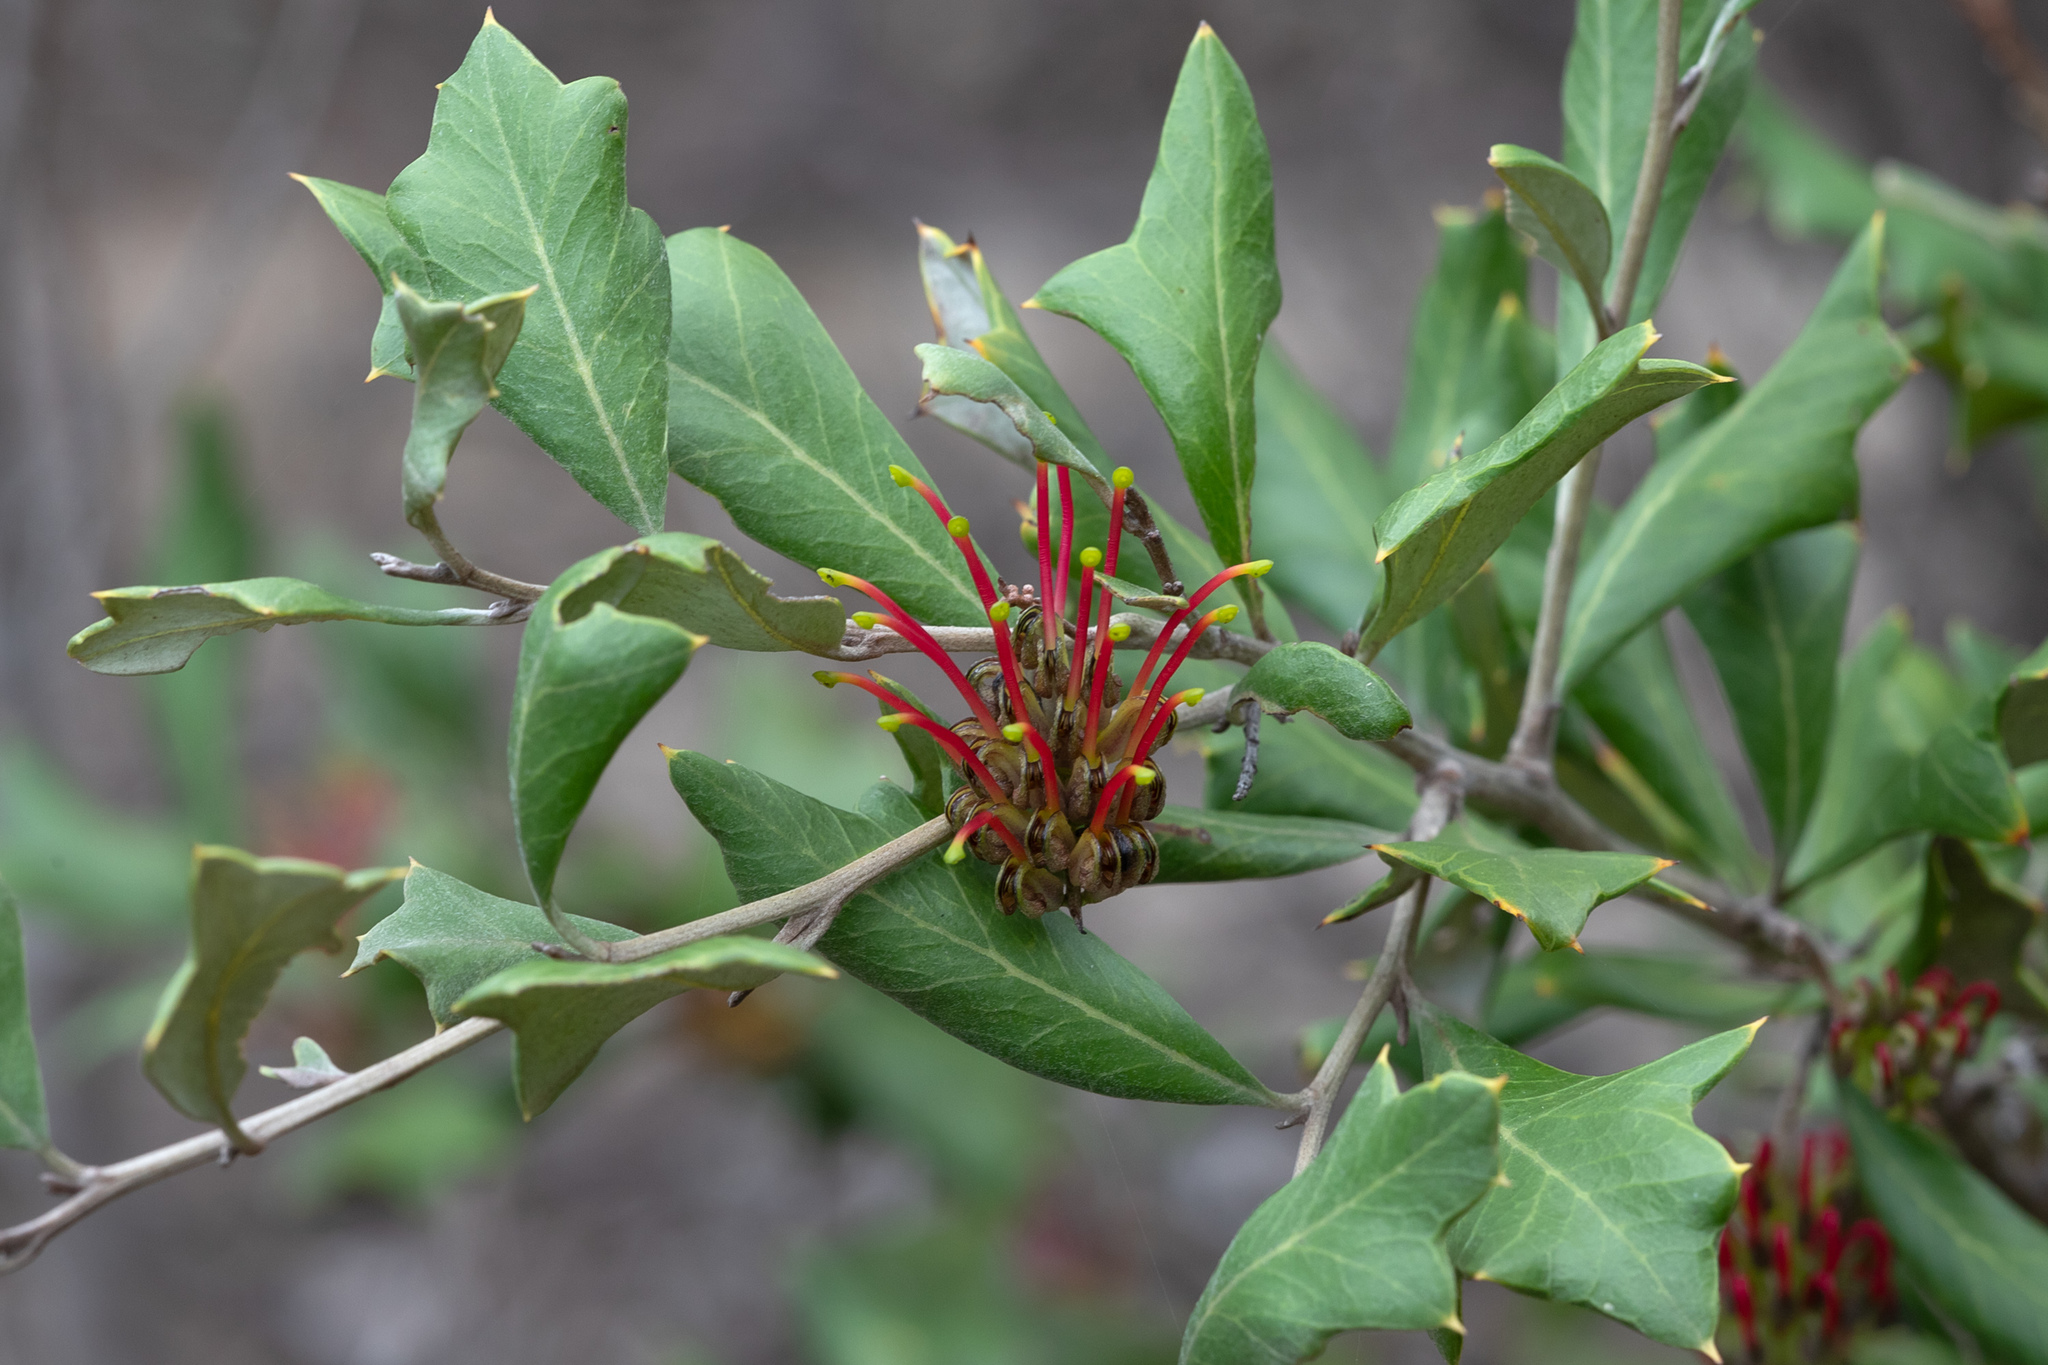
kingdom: Plantae
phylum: Tracheophyta
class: Magnoliopsida
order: Proteales
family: Proteaceae
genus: Grevillea
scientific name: Grevillea ilicifolia
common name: Holly grevillea
